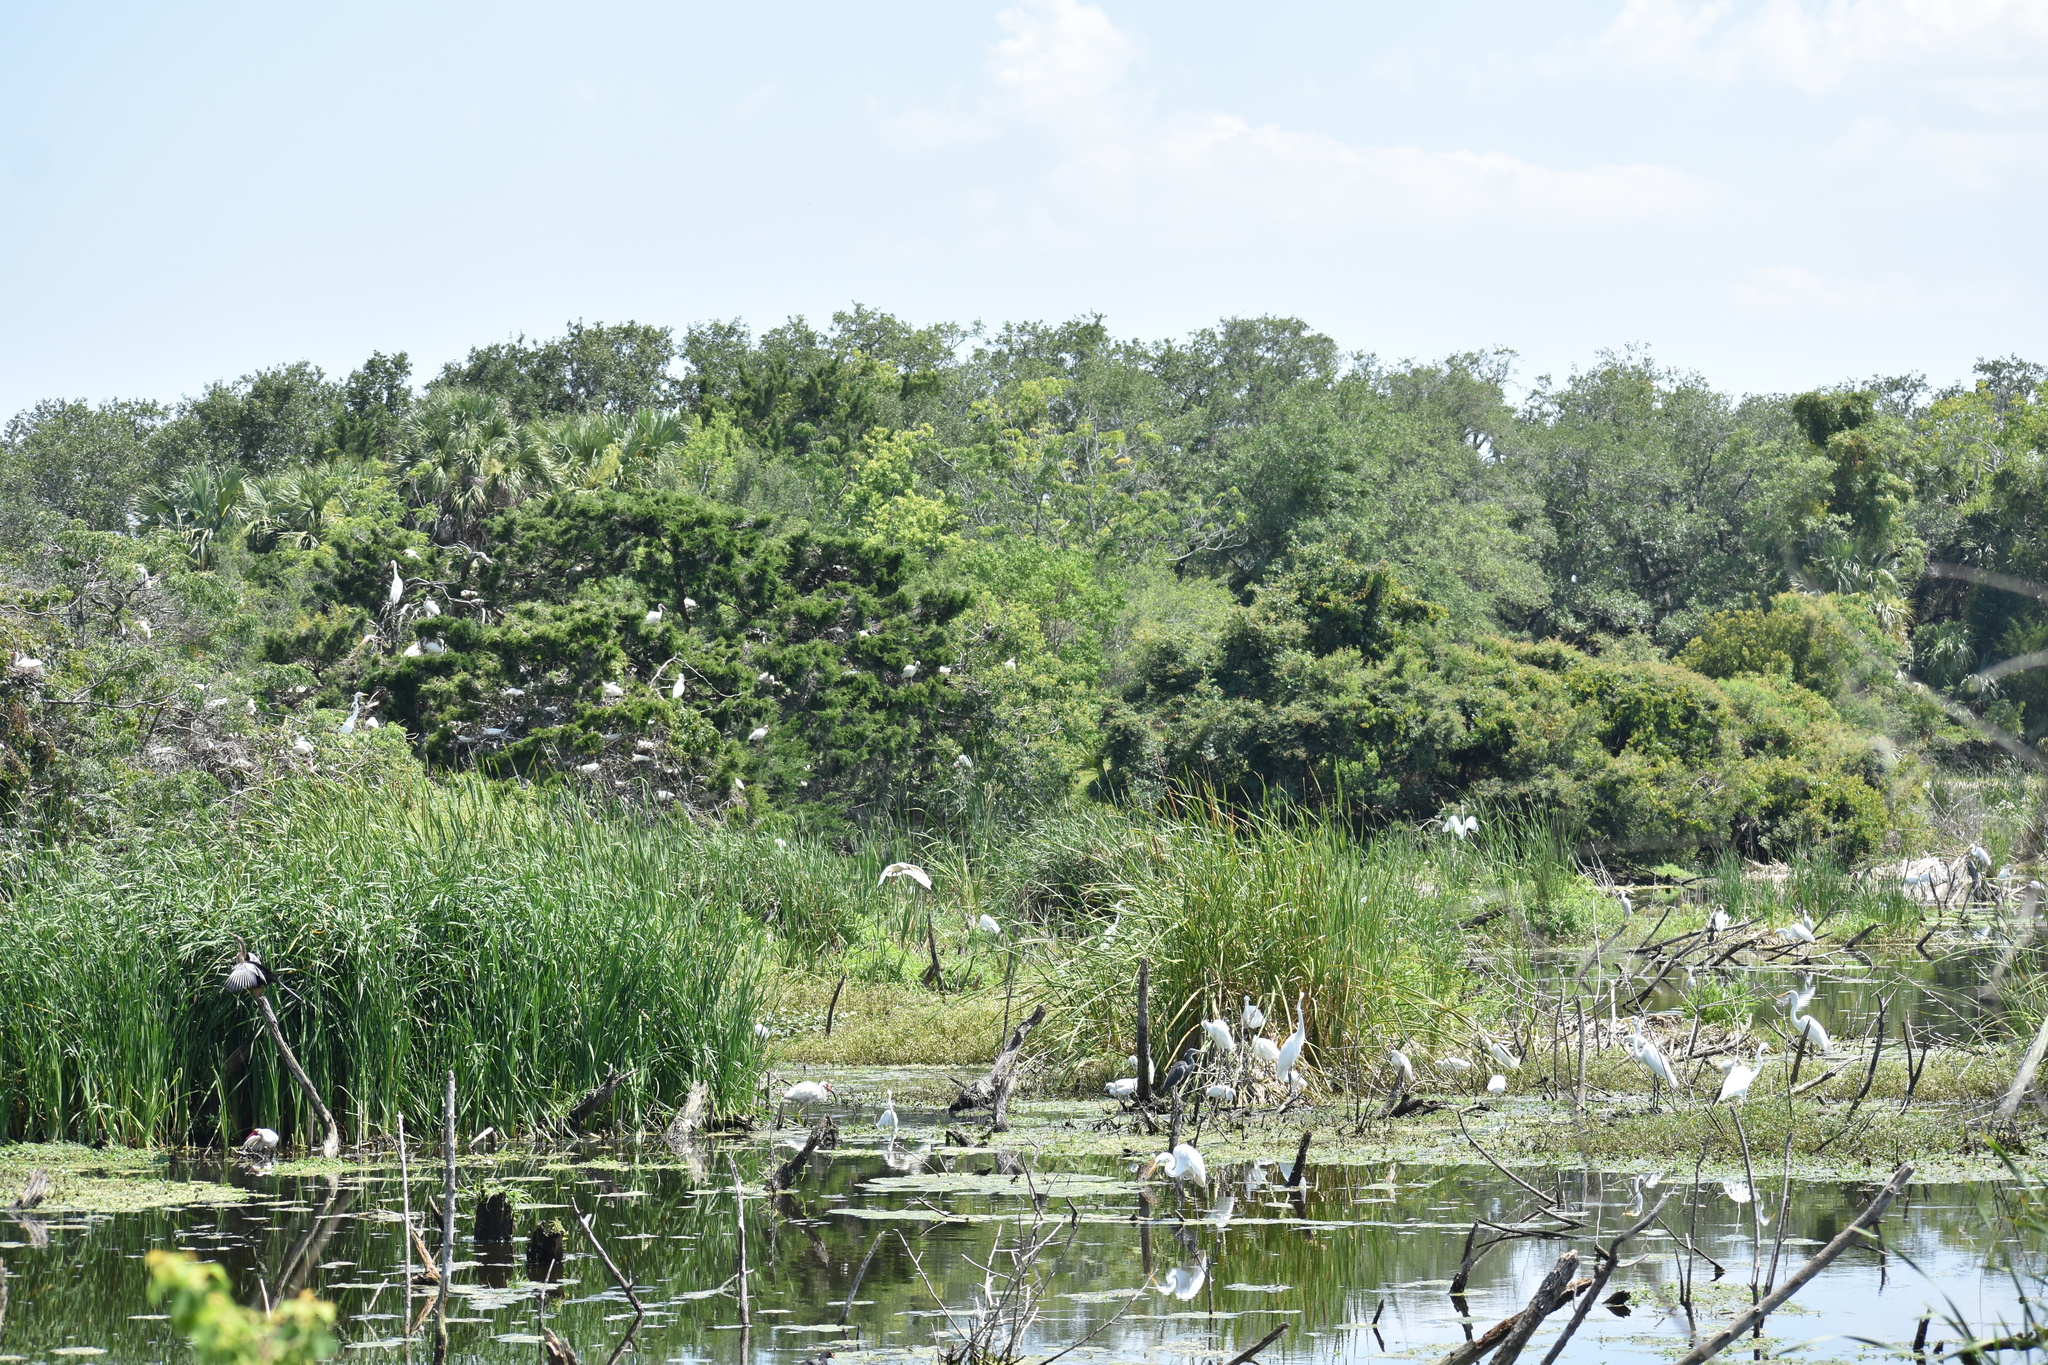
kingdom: Animalia
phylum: Chordata
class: Aves
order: Pelecaniformes
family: Ardeidae
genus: Egretta
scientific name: Egretta thula
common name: Snowy egret
